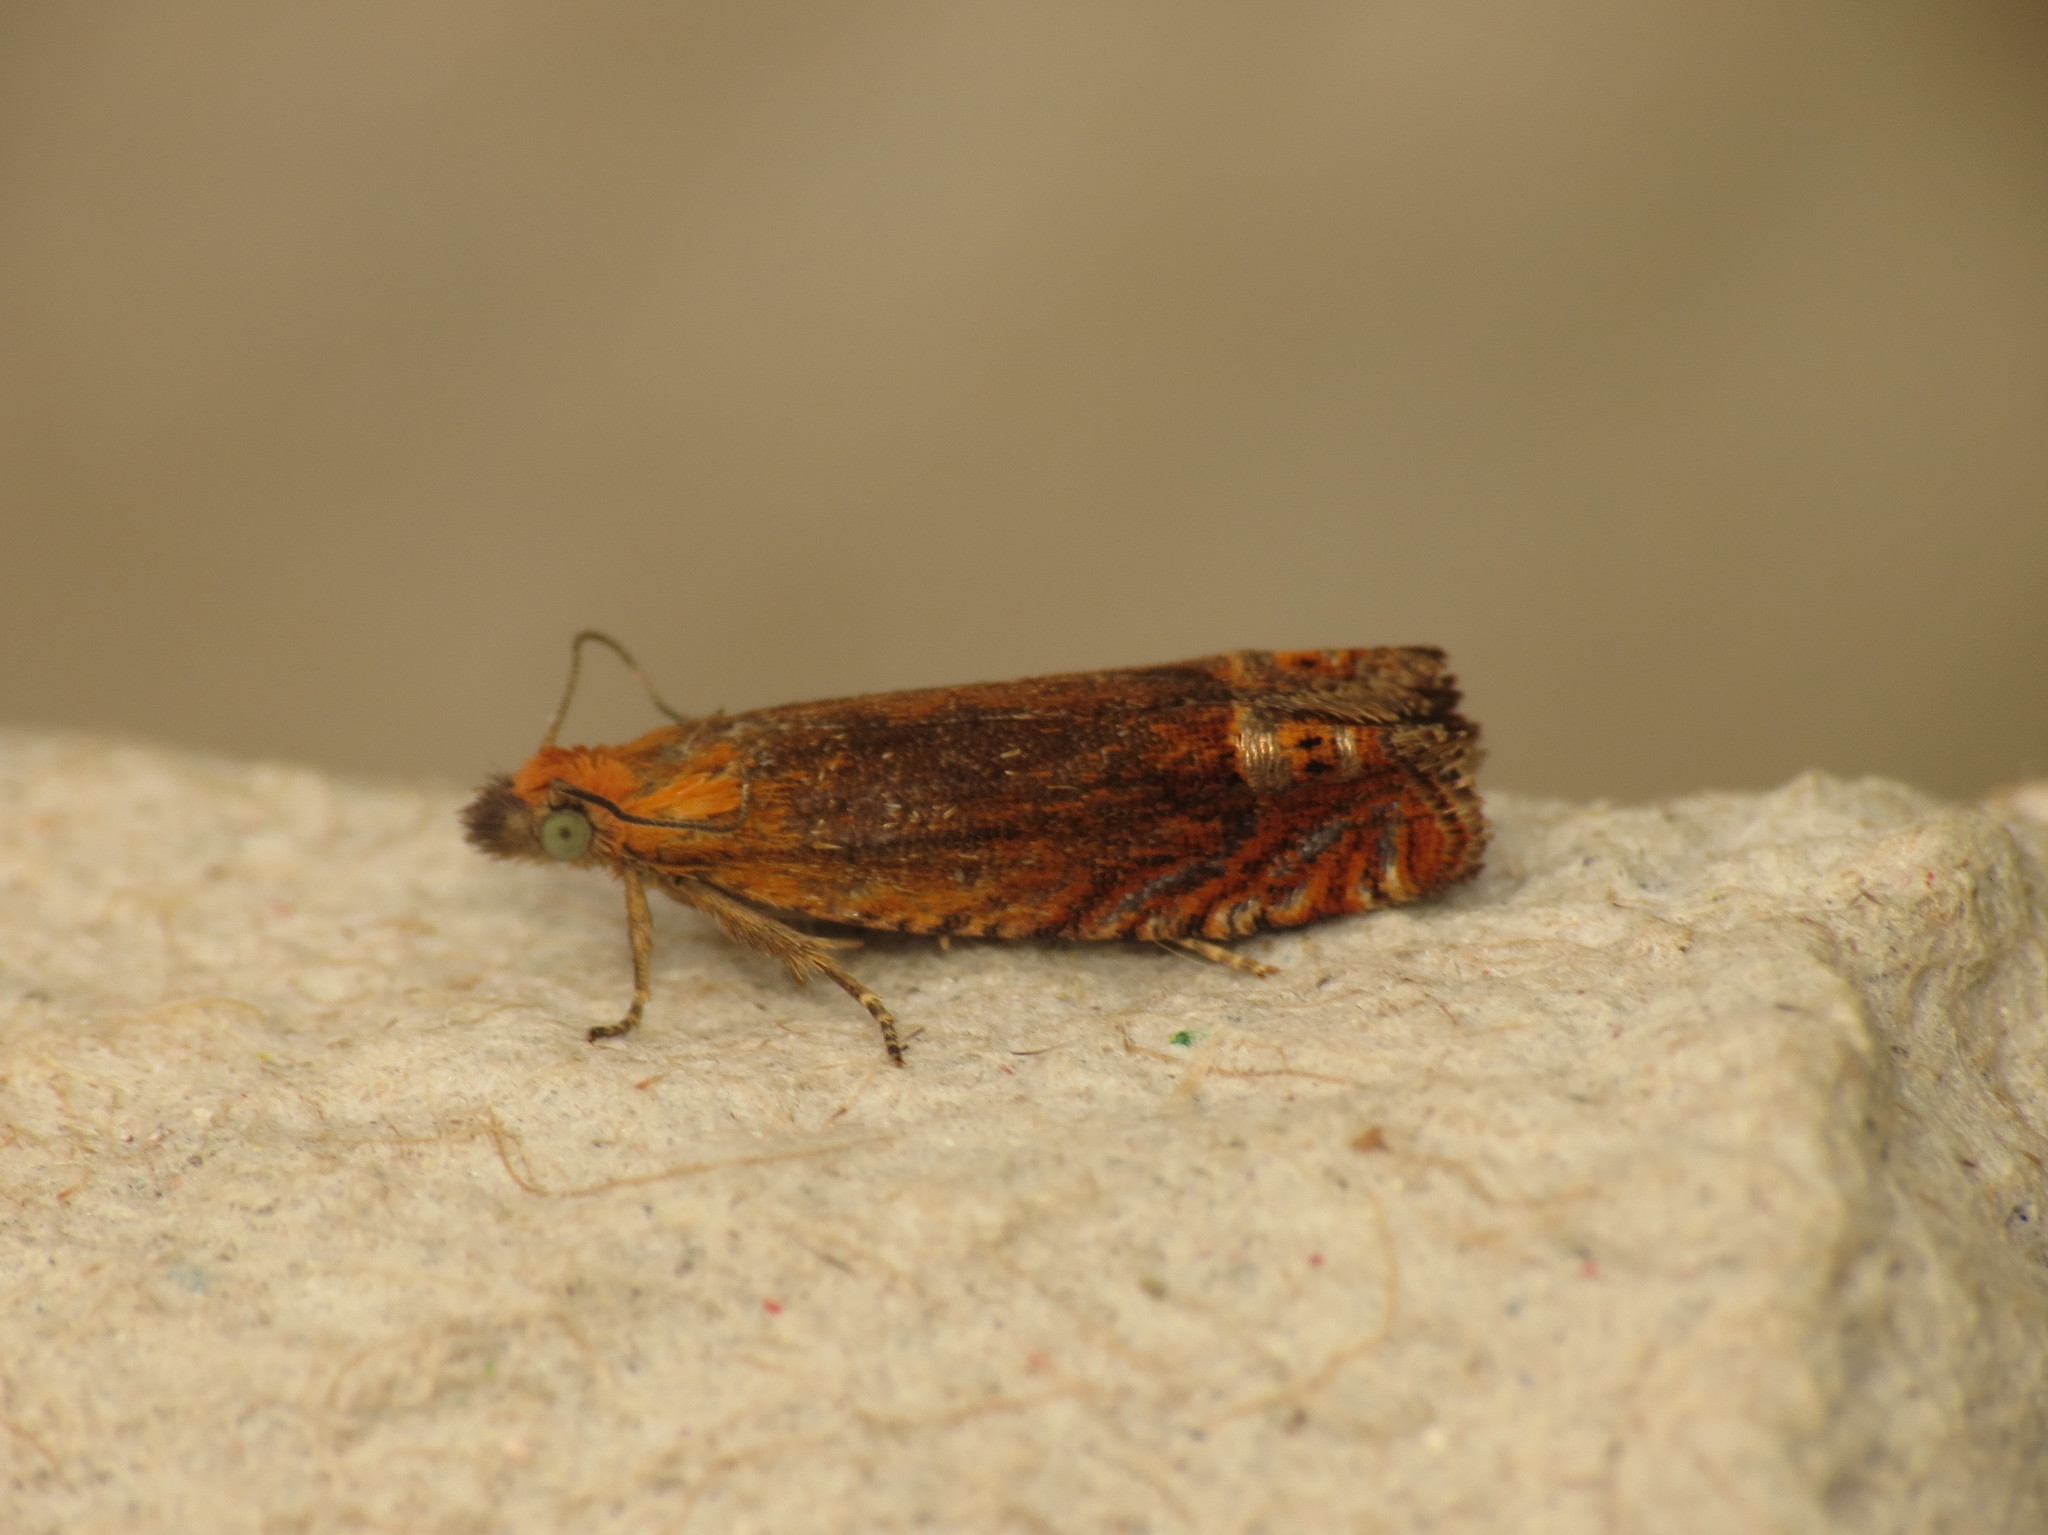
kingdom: Animalia
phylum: Arthropoda
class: Insecta
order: Lepidoptera
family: Tortricidae
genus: Lathronympha
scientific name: Lathronympha strigana
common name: Red piercer
